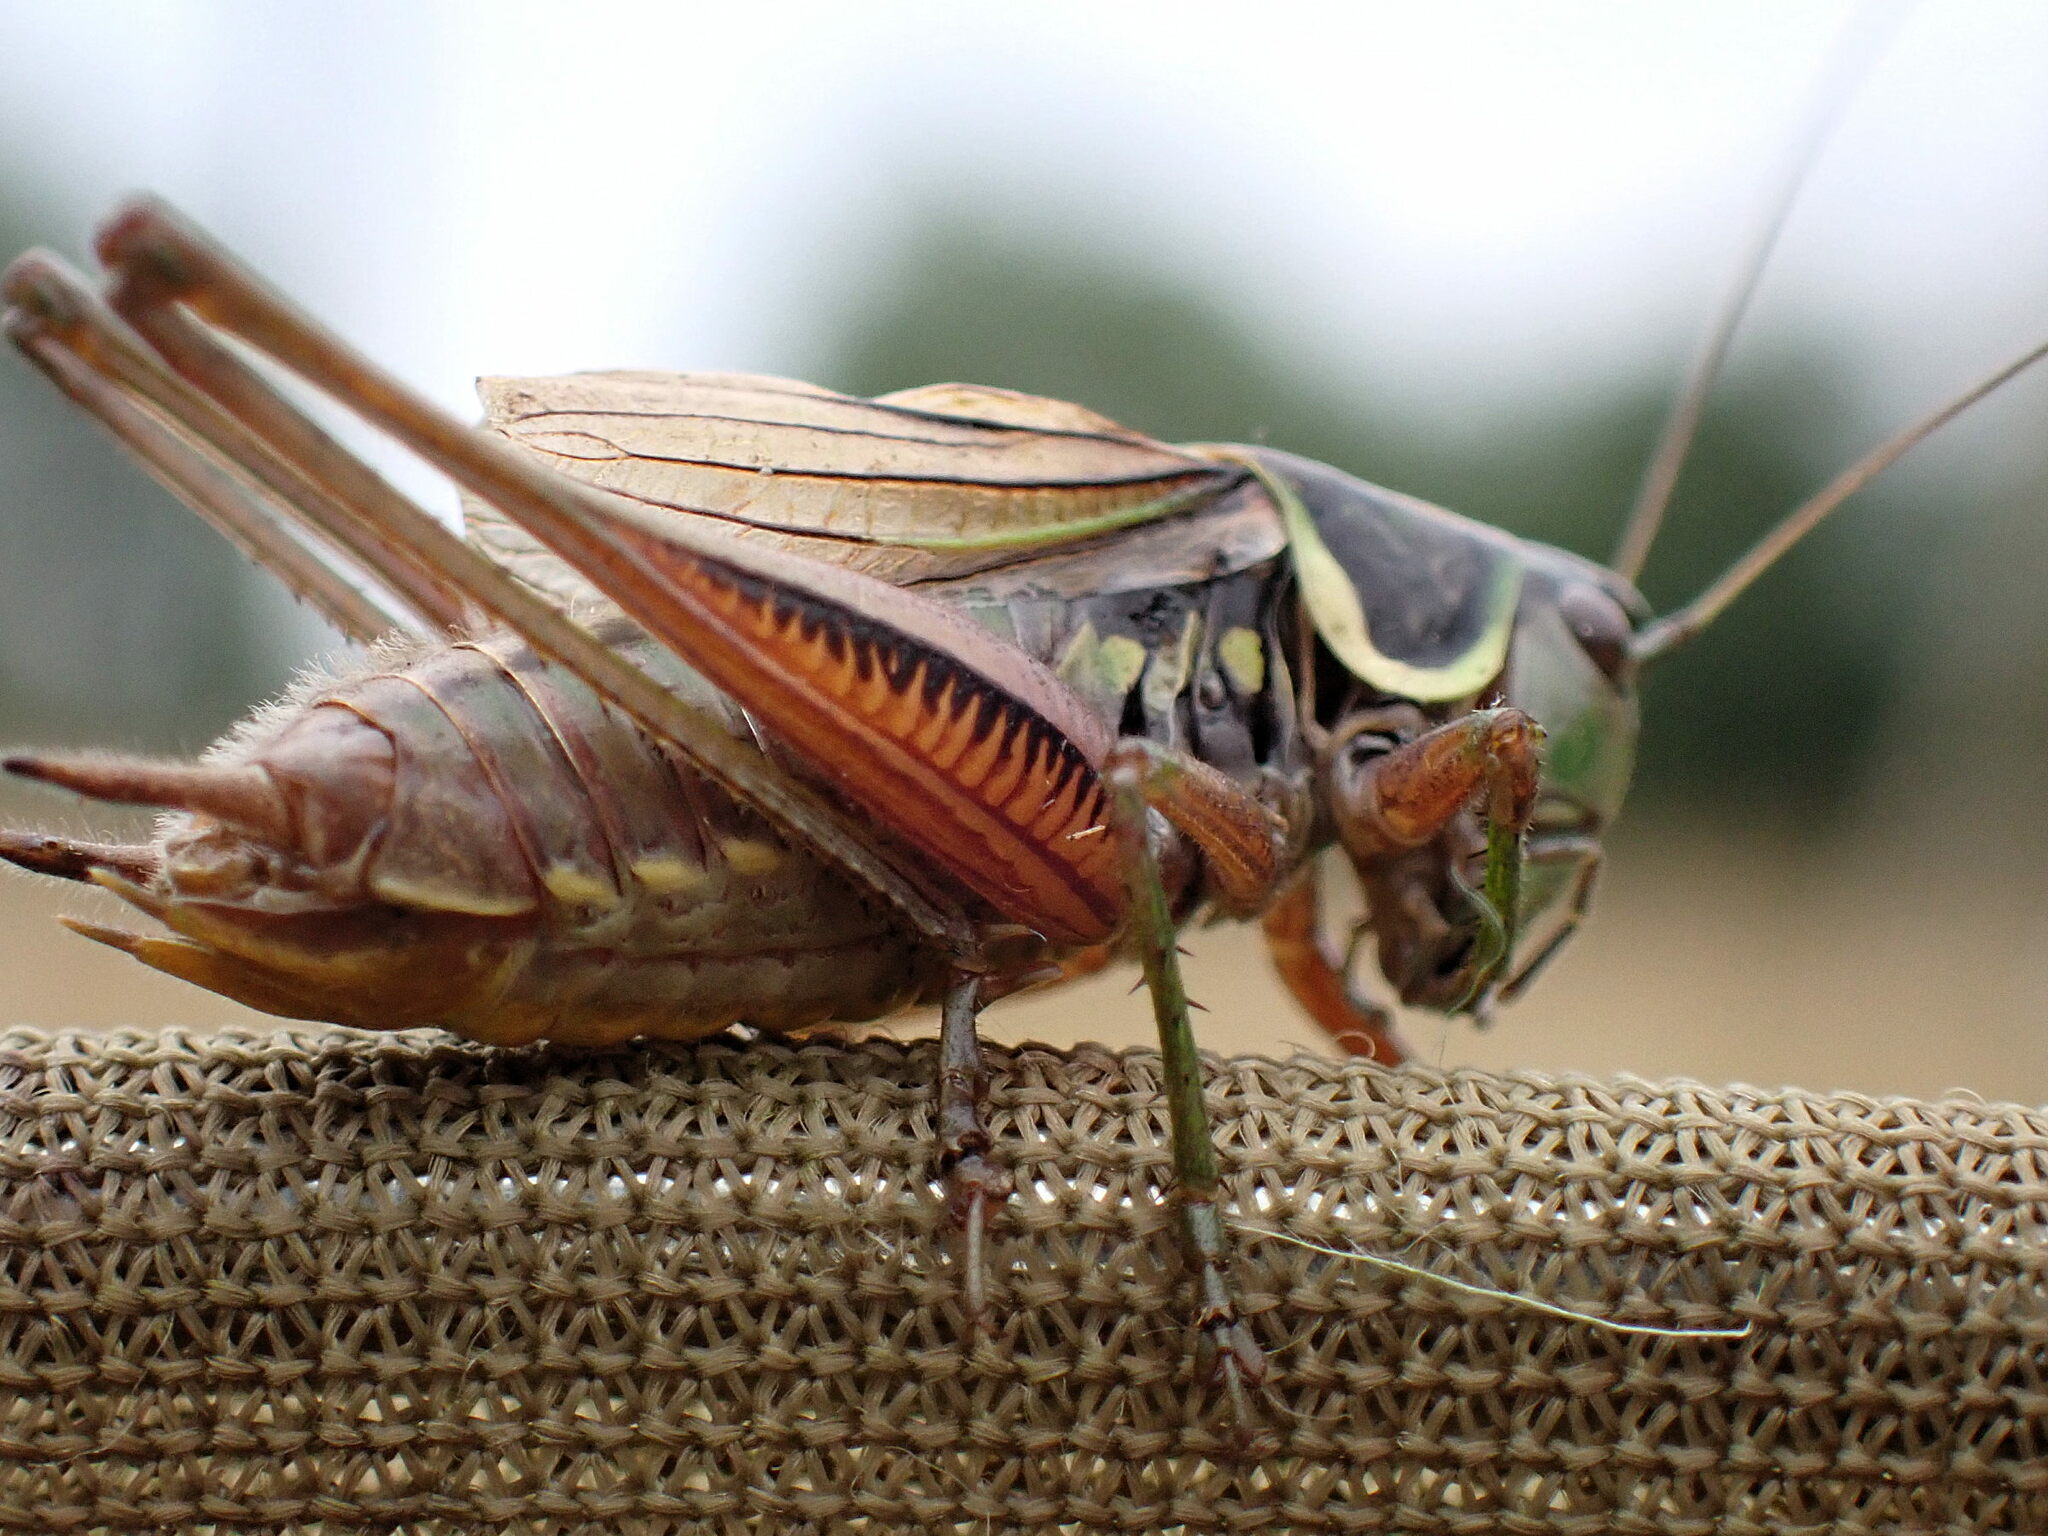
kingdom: Animalia
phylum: Arthropoda
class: Insecta
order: Orthoptera
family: Tettigoniidae
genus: Roeseliana
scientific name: Roeseliana roeselii
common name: Roesel's bush cricket
